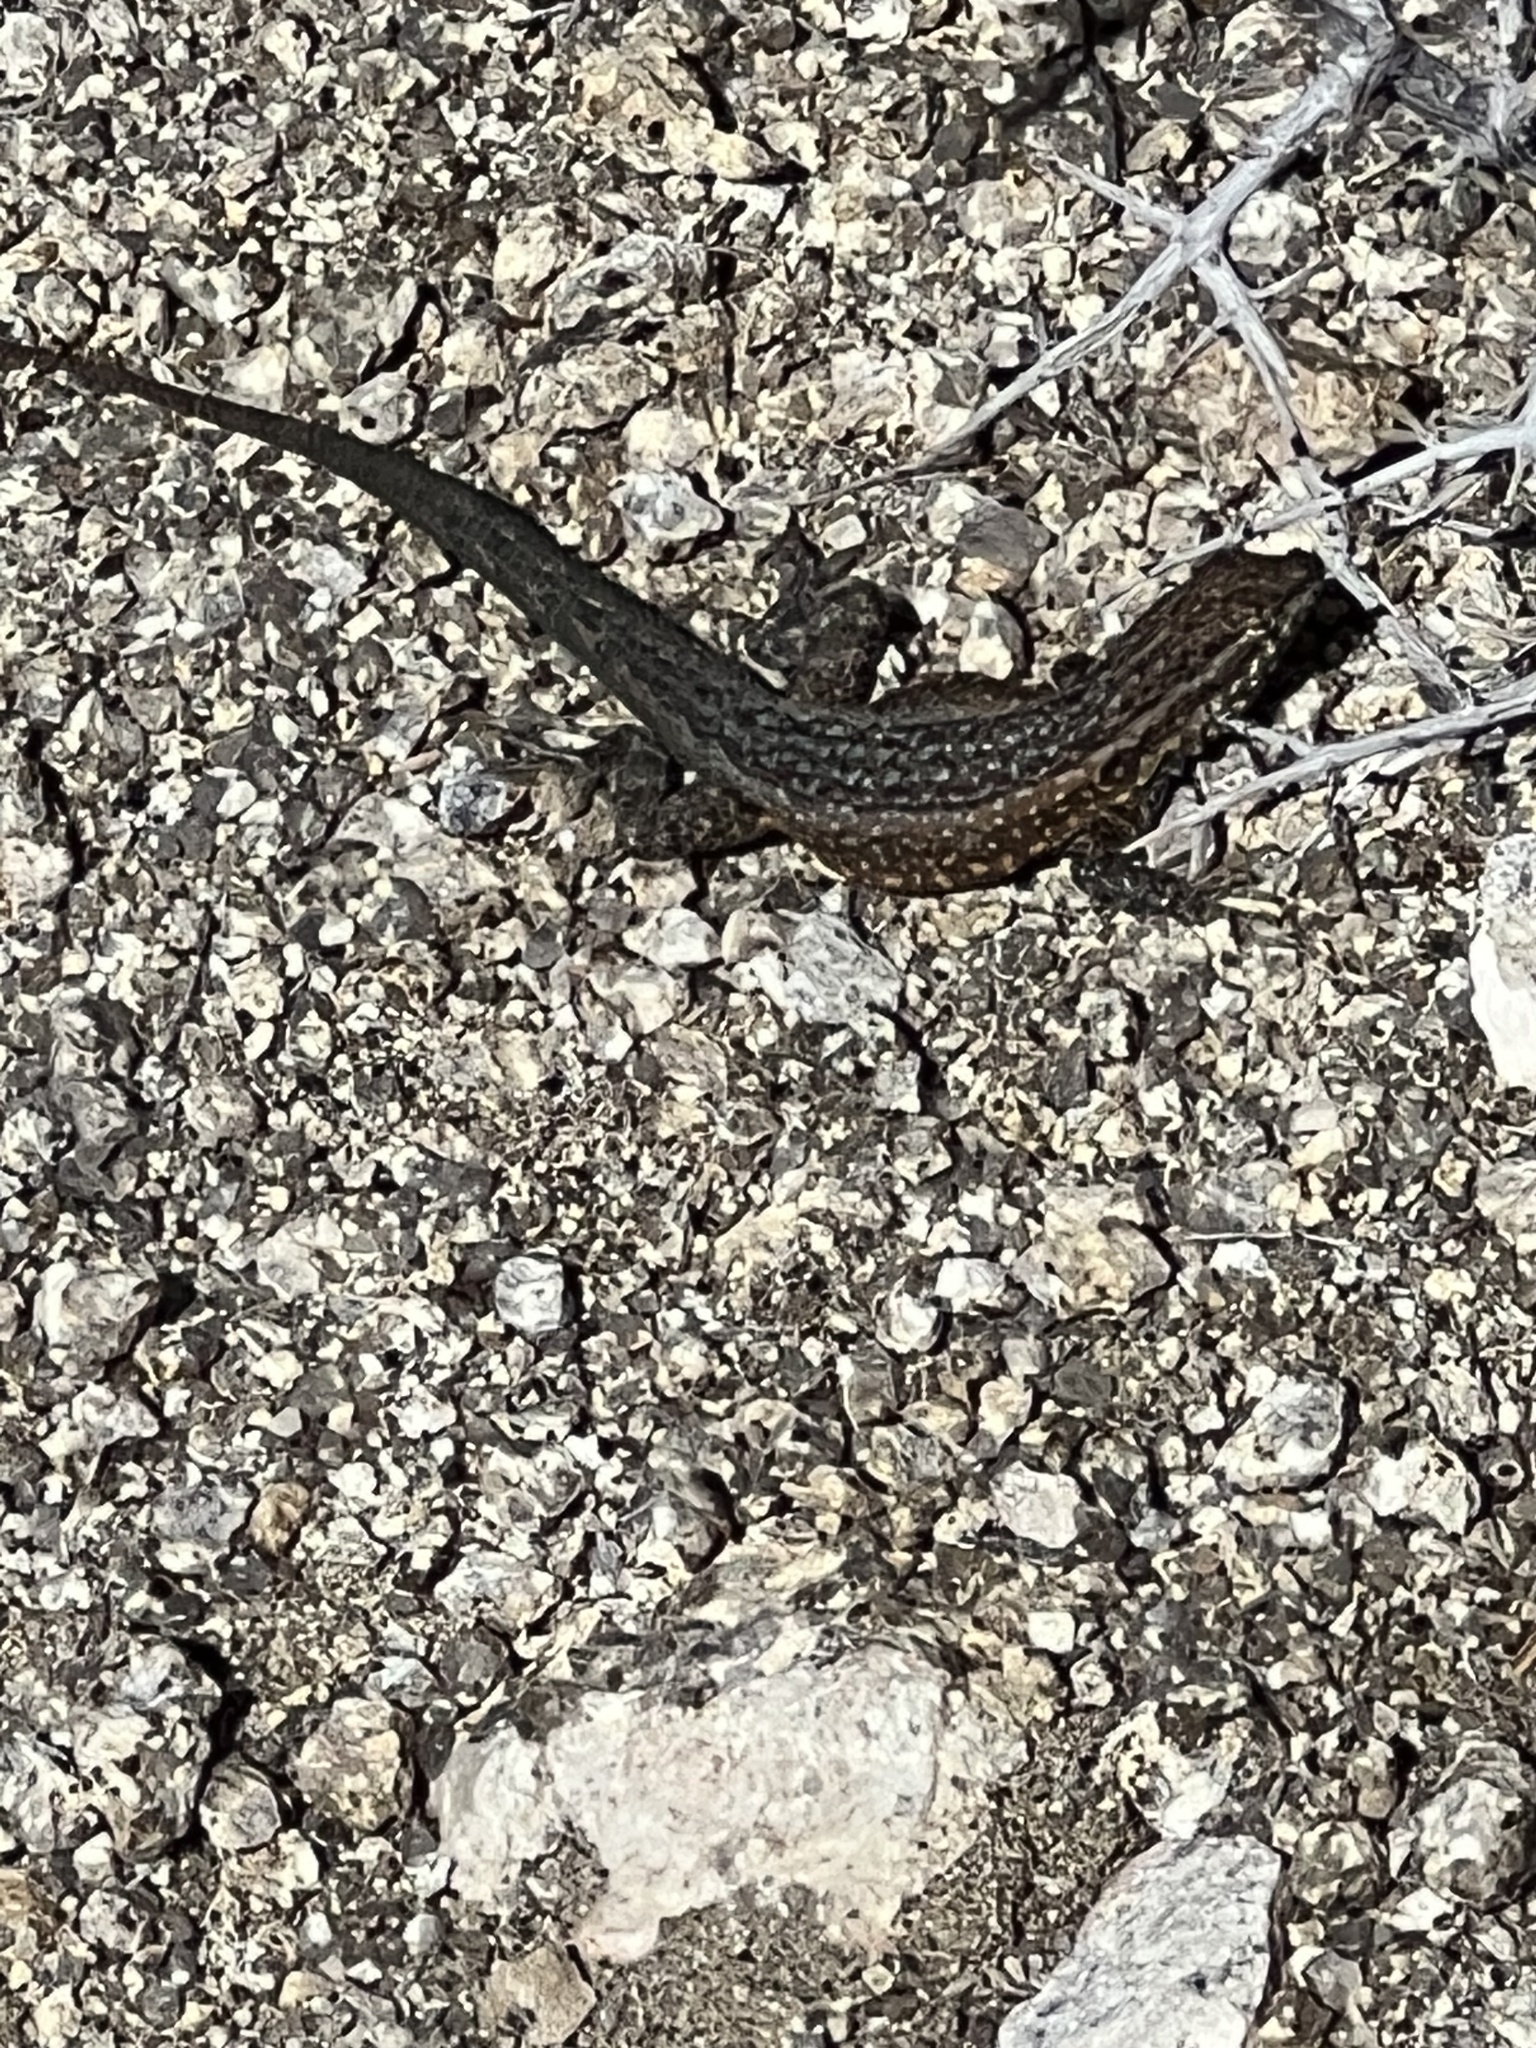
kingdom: Animalia
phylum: Chordata
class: Squamata
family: Phrynosomatidae
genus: Uta
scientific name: Uta stansburiana
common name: Side-blotched lizard
